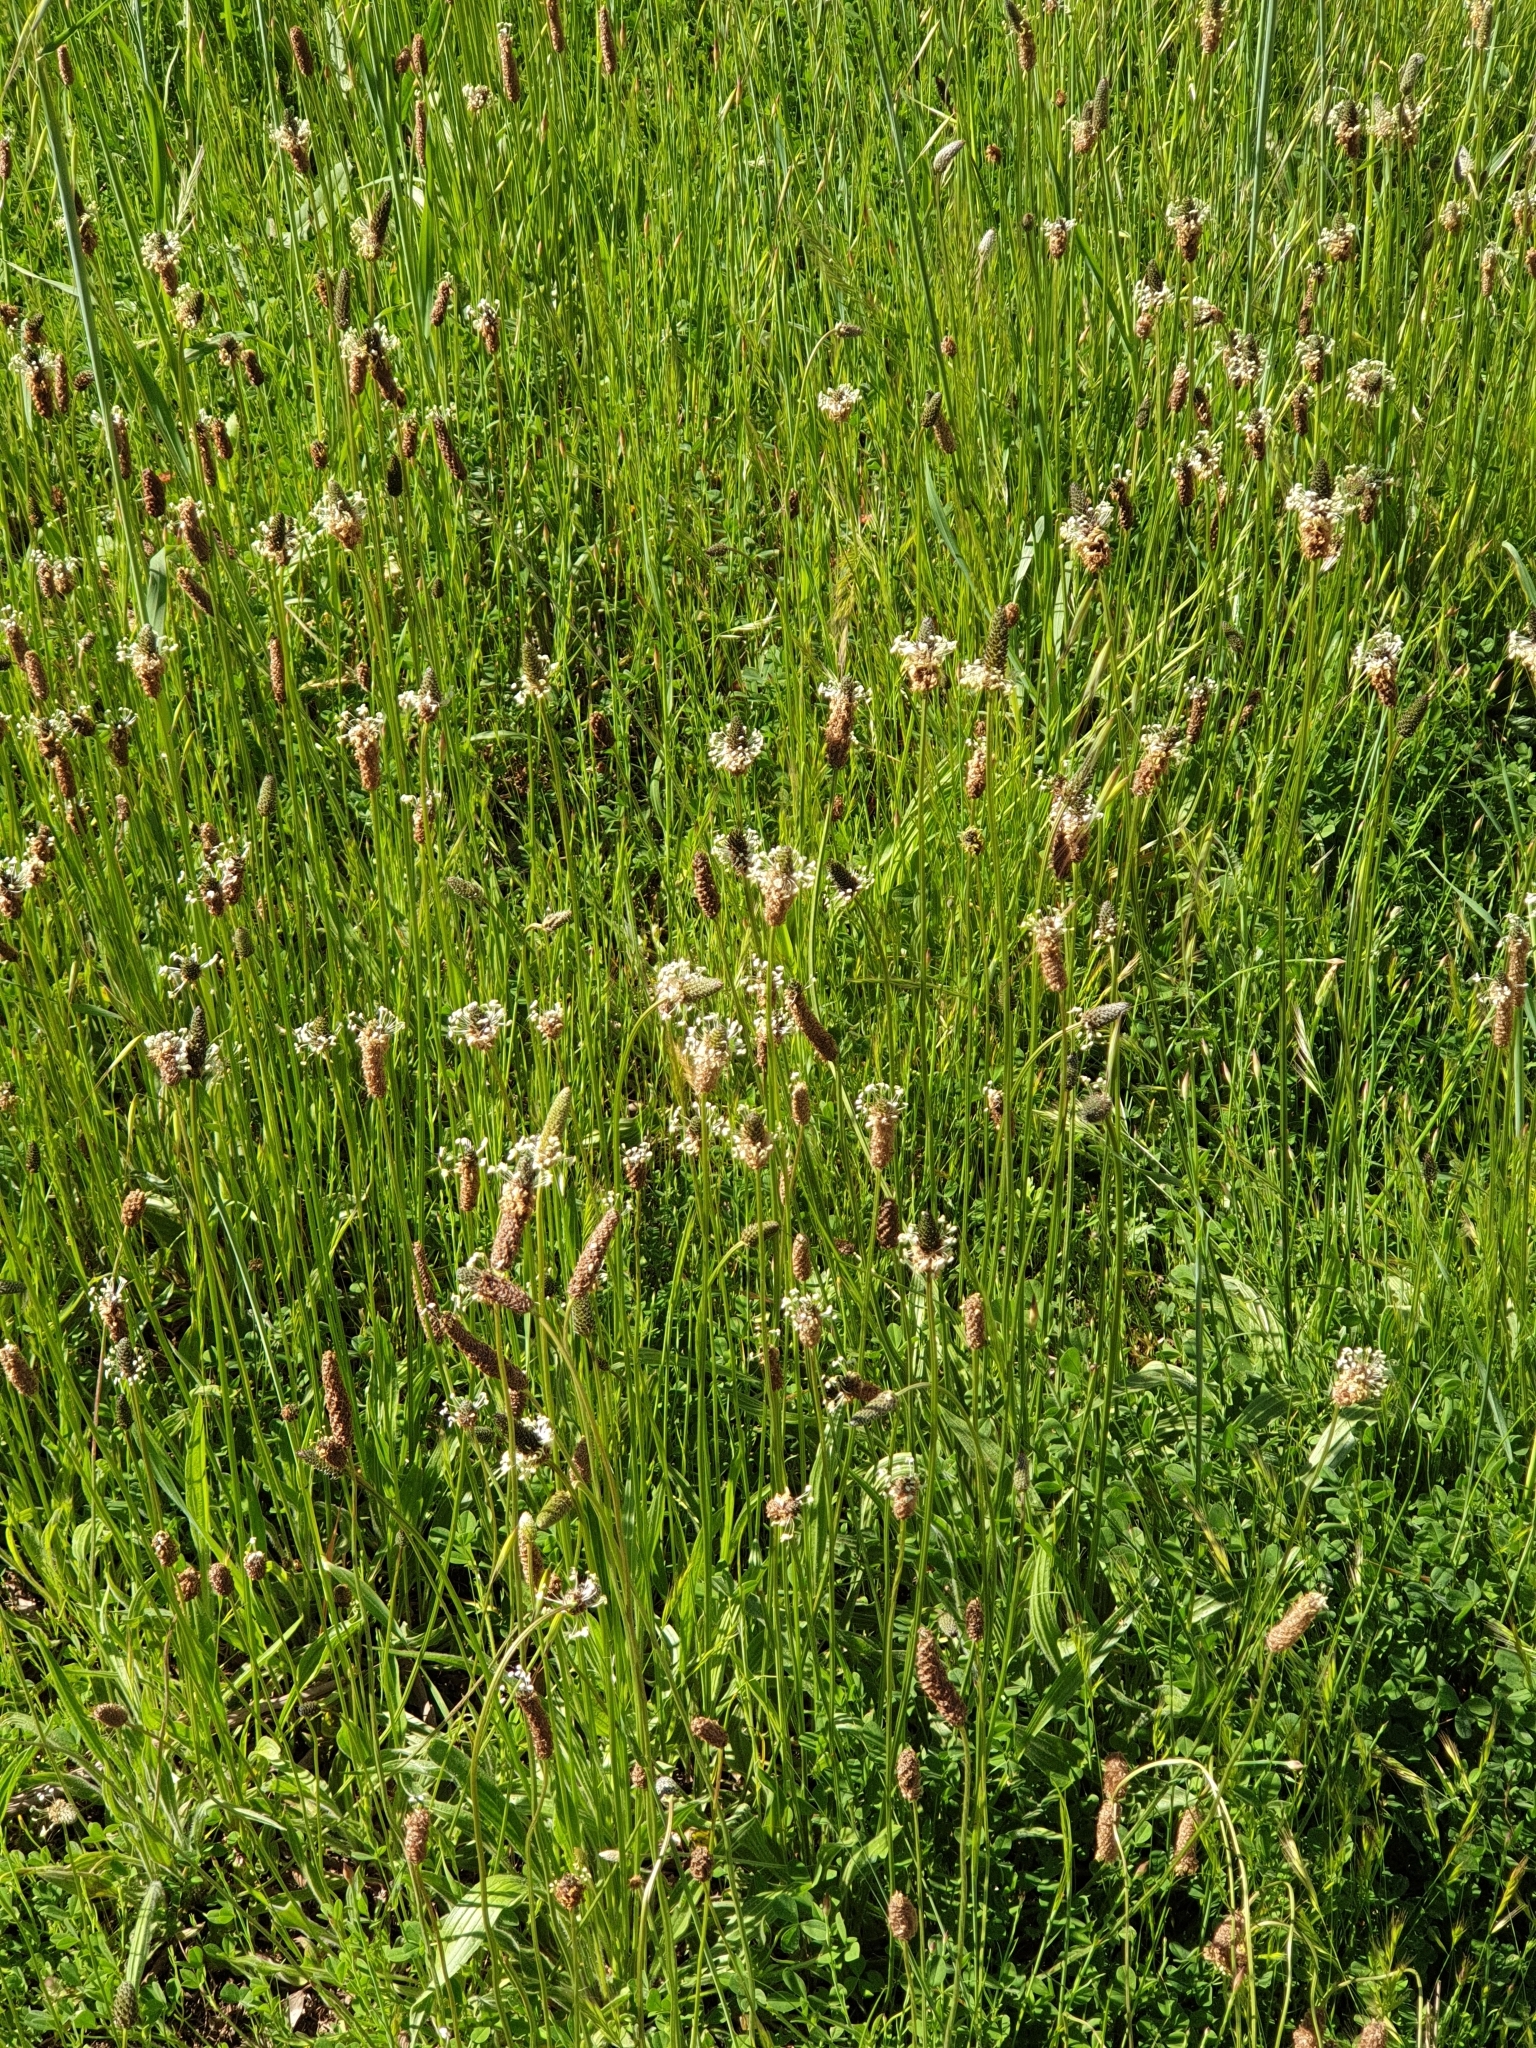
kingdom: Plantae
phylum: Tracheophyta
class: Magnoliopsida
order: Lamiales
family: Plantaginaceae
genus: Plantago
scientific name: Plantago lanceolata
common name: Ribwort plantain
